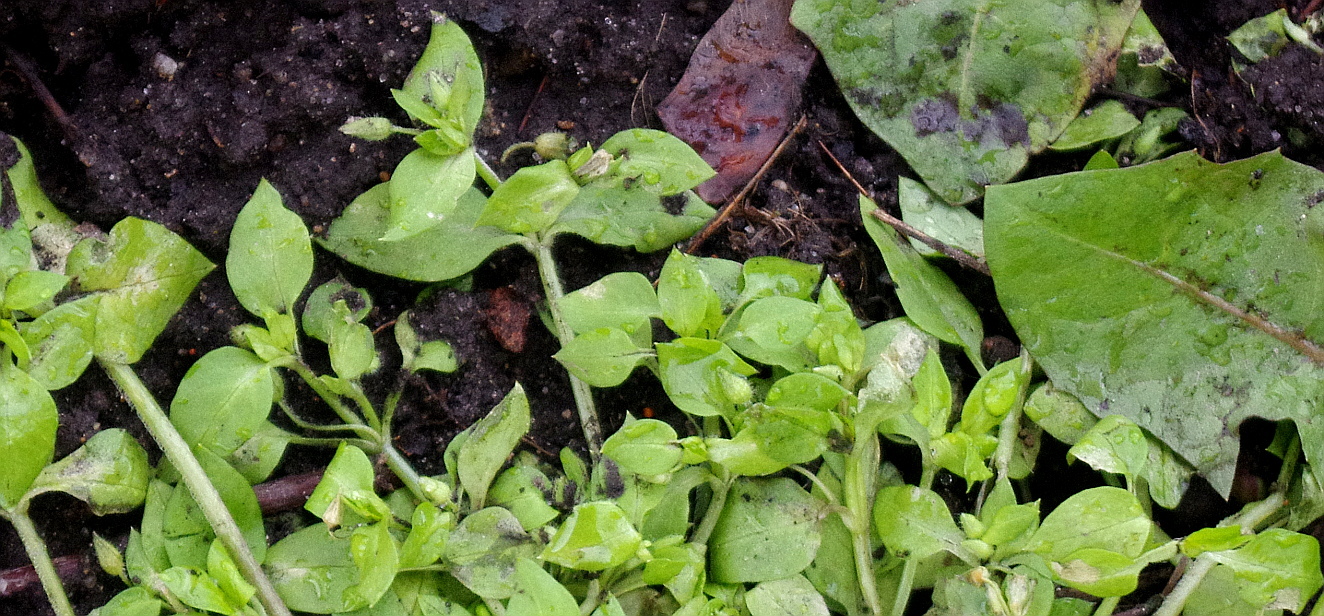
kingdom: Plantae
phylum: Tracheophyta
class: Magnoliopsida
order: Caryophyllales
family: Caryophyllaceae
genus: Stellaria
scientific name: Stellaria media
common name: Common chickweed
